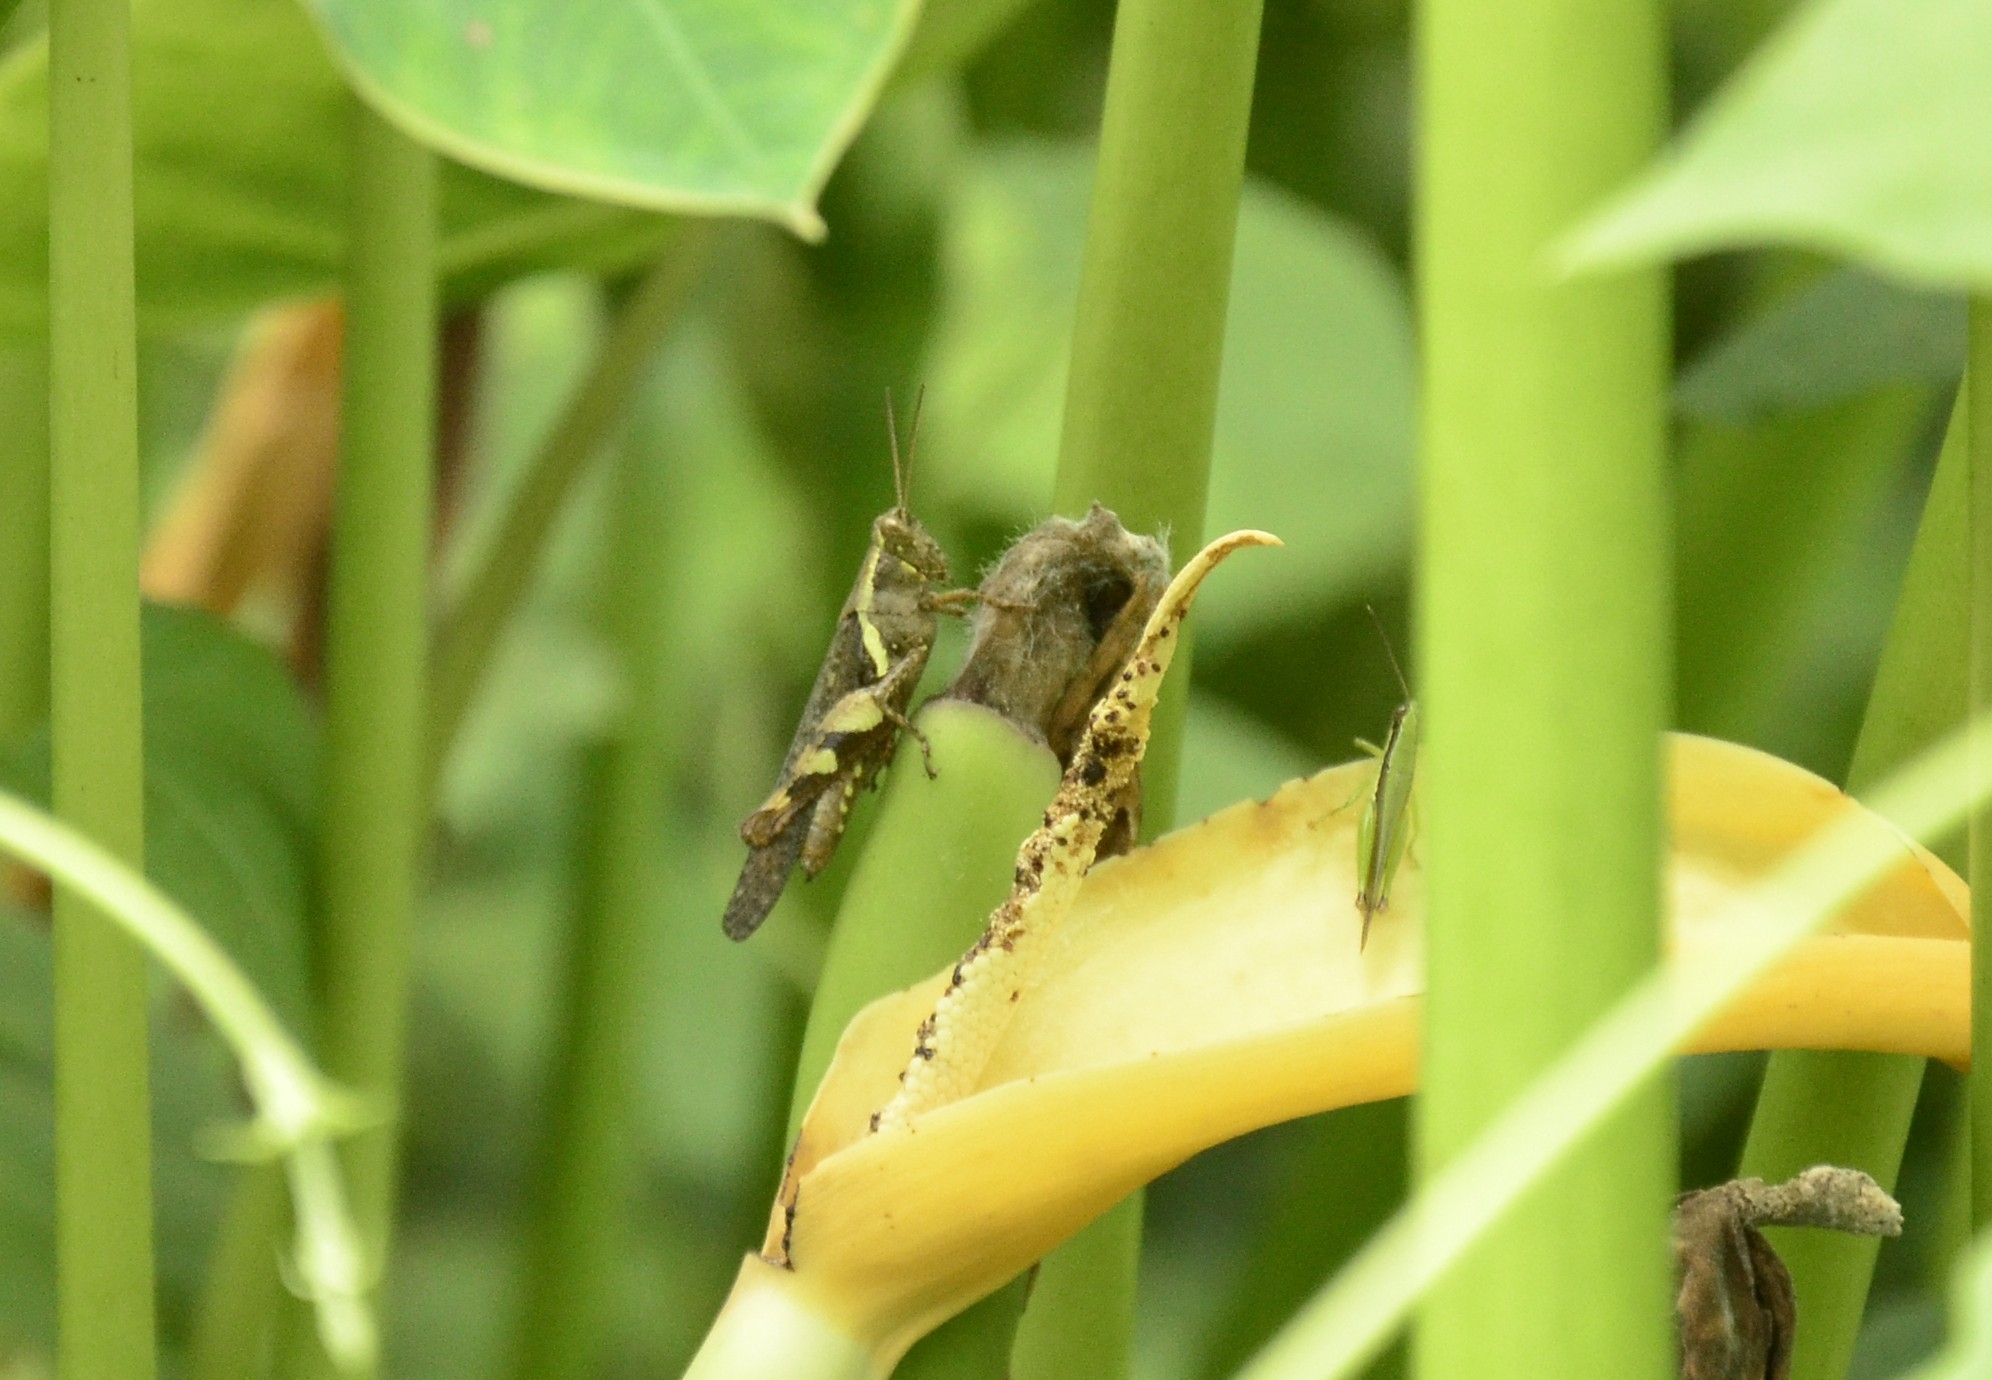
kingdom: Animalia
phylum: Arthropoda
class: Insecta
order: Orthoptera
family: Acrididae
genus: Xenocatantops
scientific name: Xenocatantops humile
